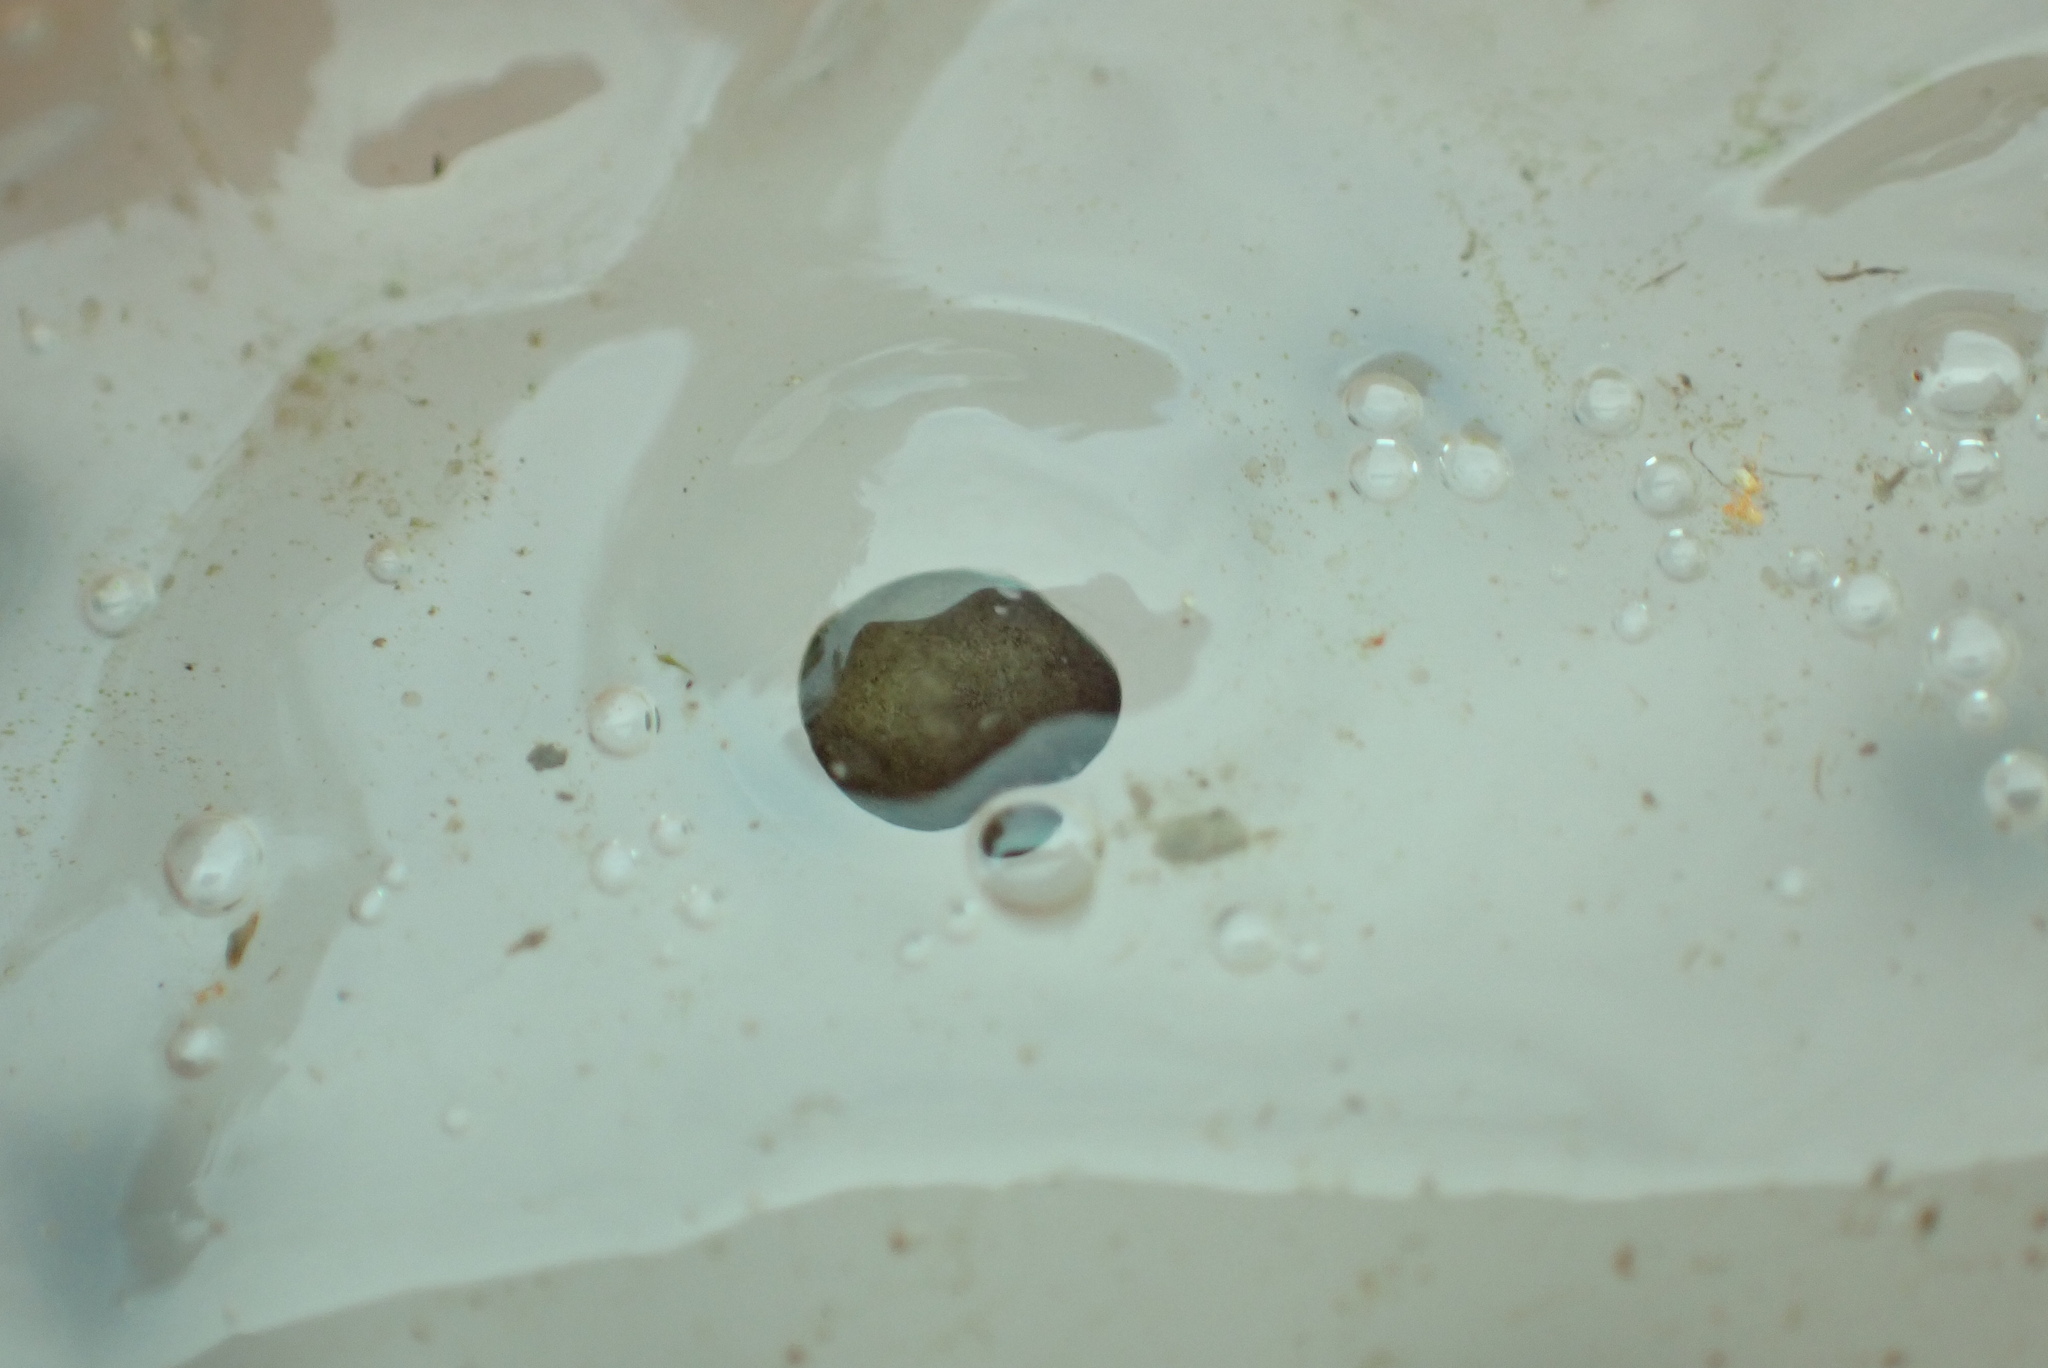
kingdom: Animalia
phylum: Chordata
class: Amphibia
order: Caudata
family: Ambystomatidae
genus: Ambystoma
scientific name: Ambystoma maculatum
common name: Spotted salamander
